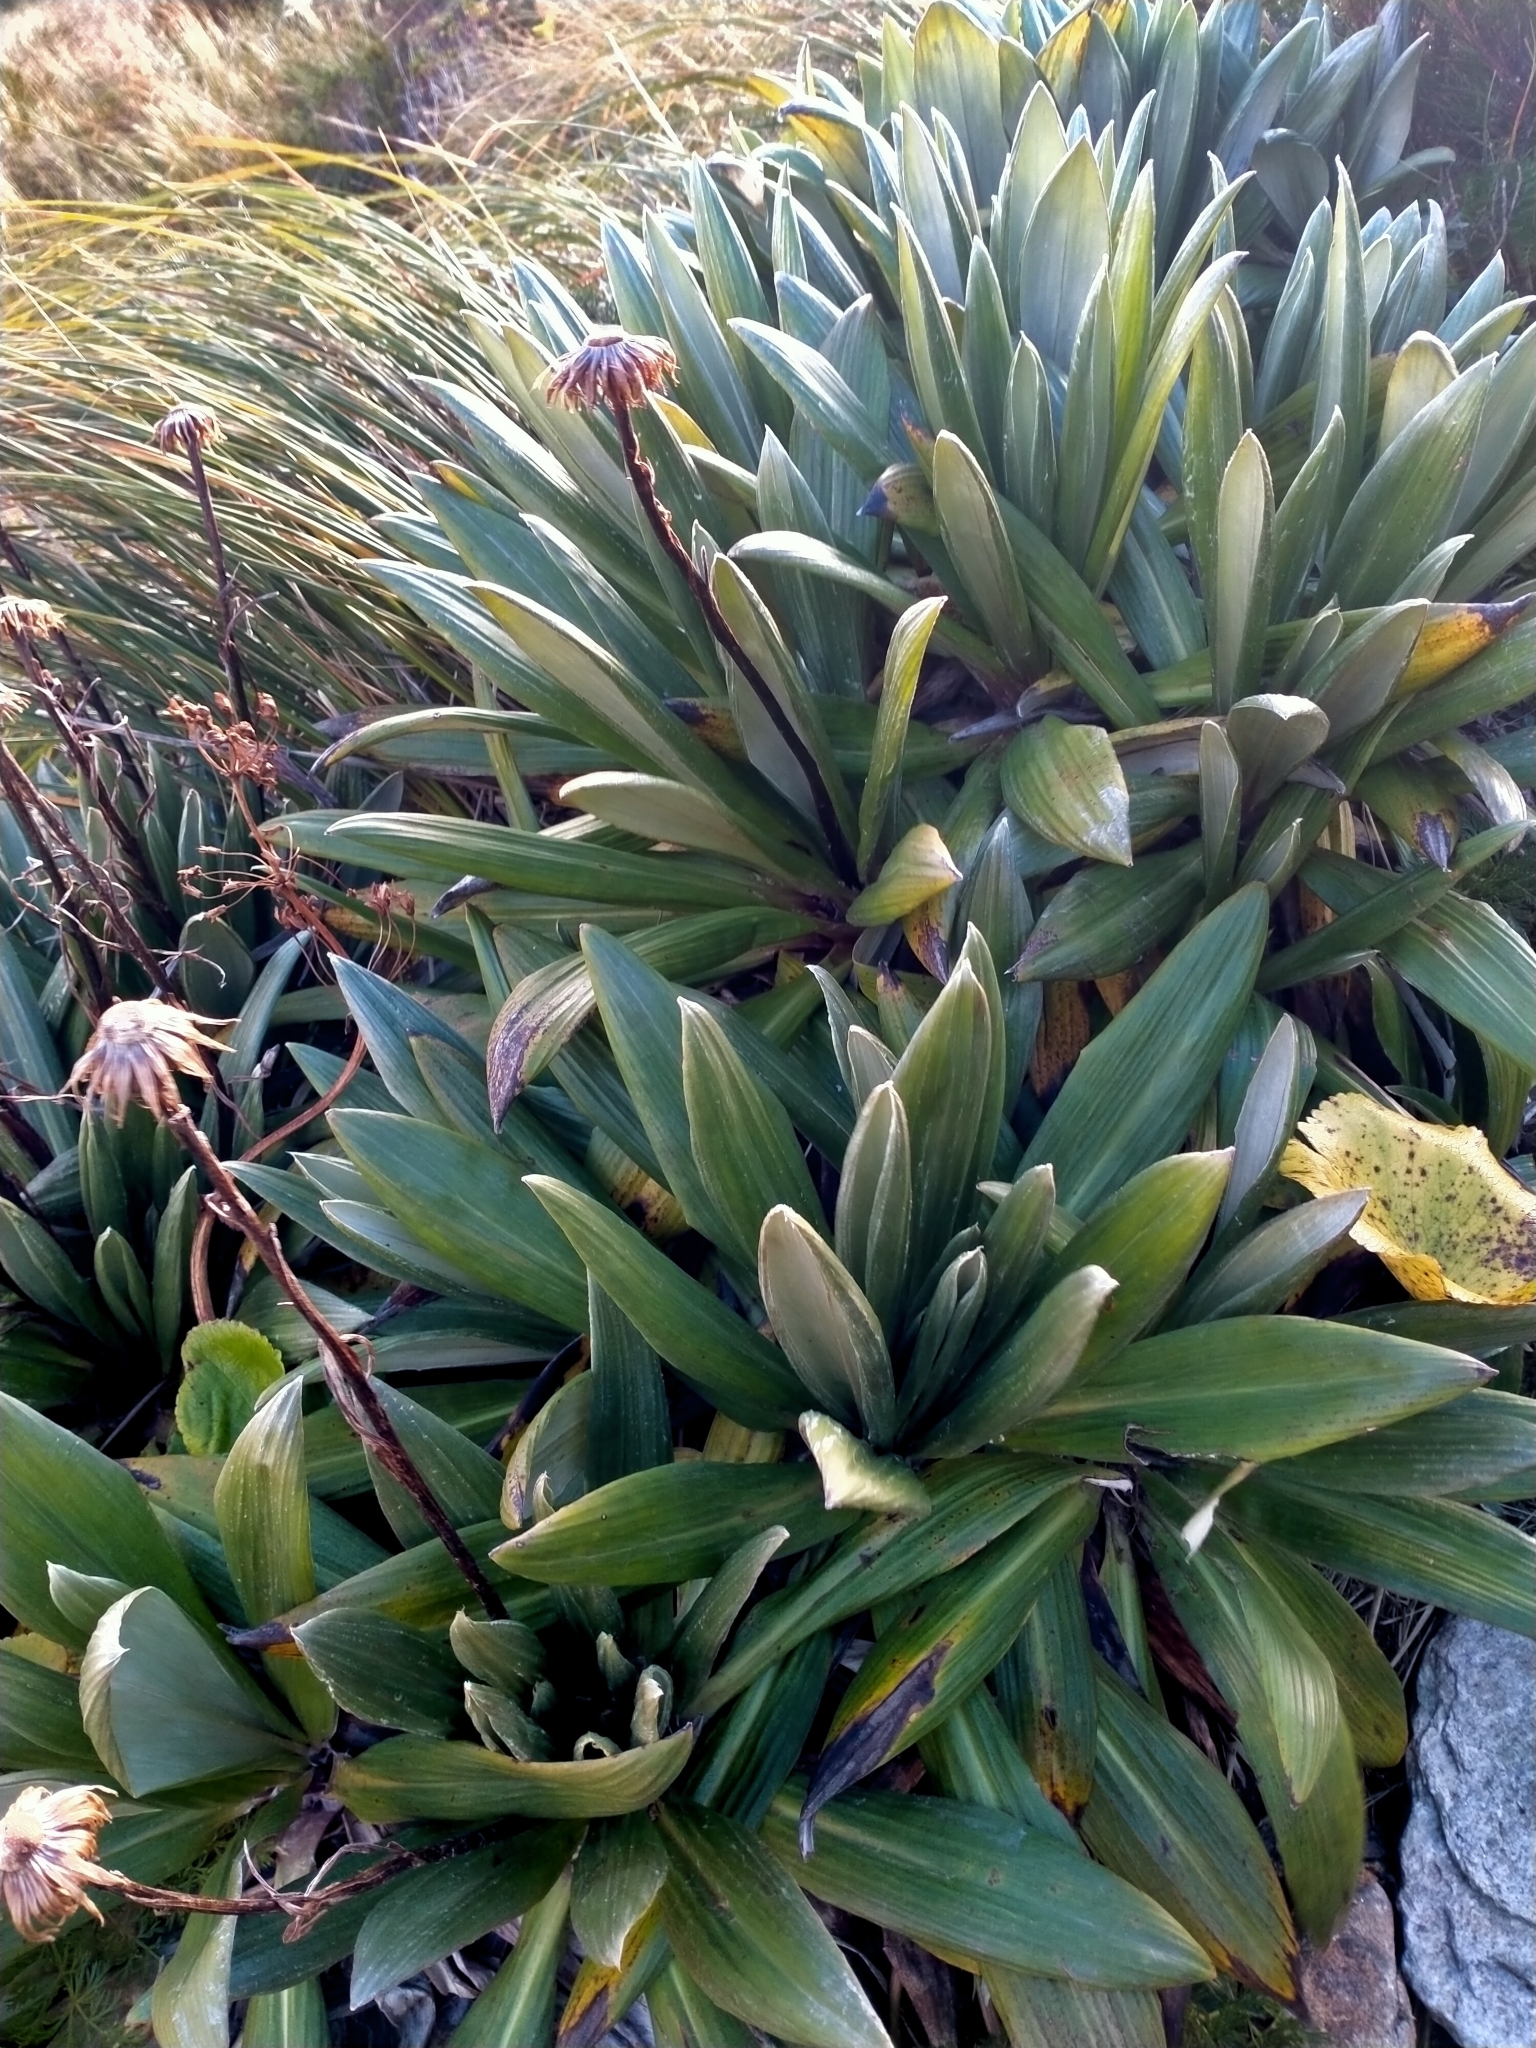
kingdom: Plantae
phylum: Tracheophyta
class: Magnoliopsida
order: Asterales
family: Asteraceae
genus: Celmisia
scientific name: Celmisia semicordata
